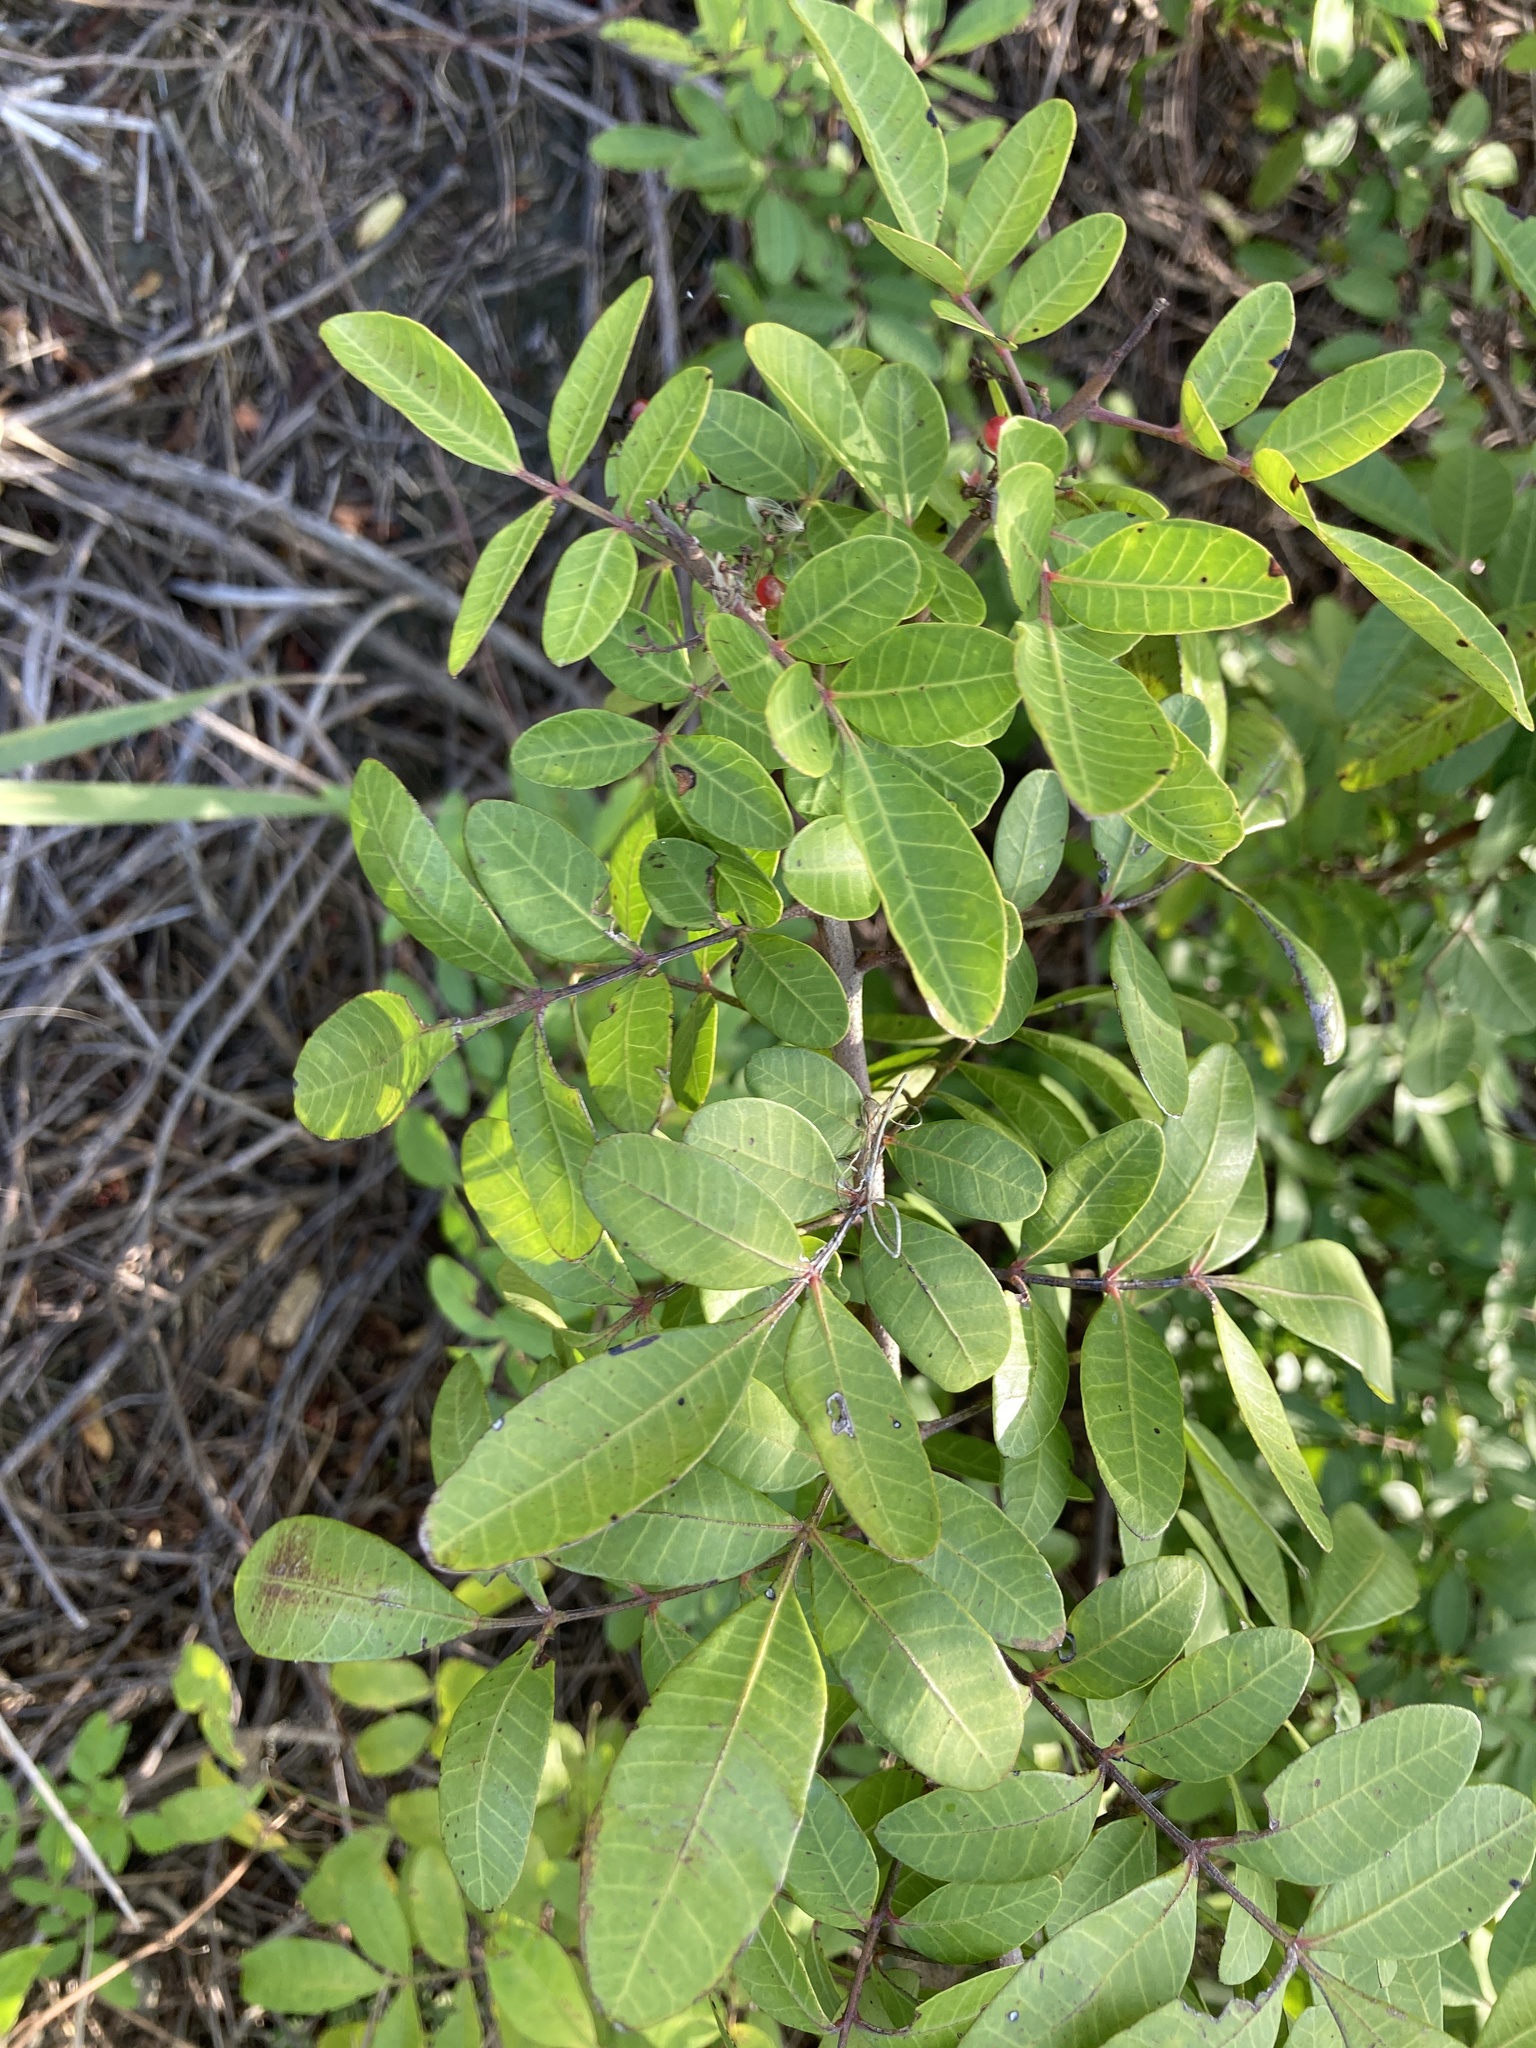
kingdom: Plantae
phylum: Tracheophyta
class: Magnoliopsida
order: Sapindales
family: Anacardiaceae
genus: Schinus
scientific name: Schinus terebinthifolia
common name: Brazilian peppertree
